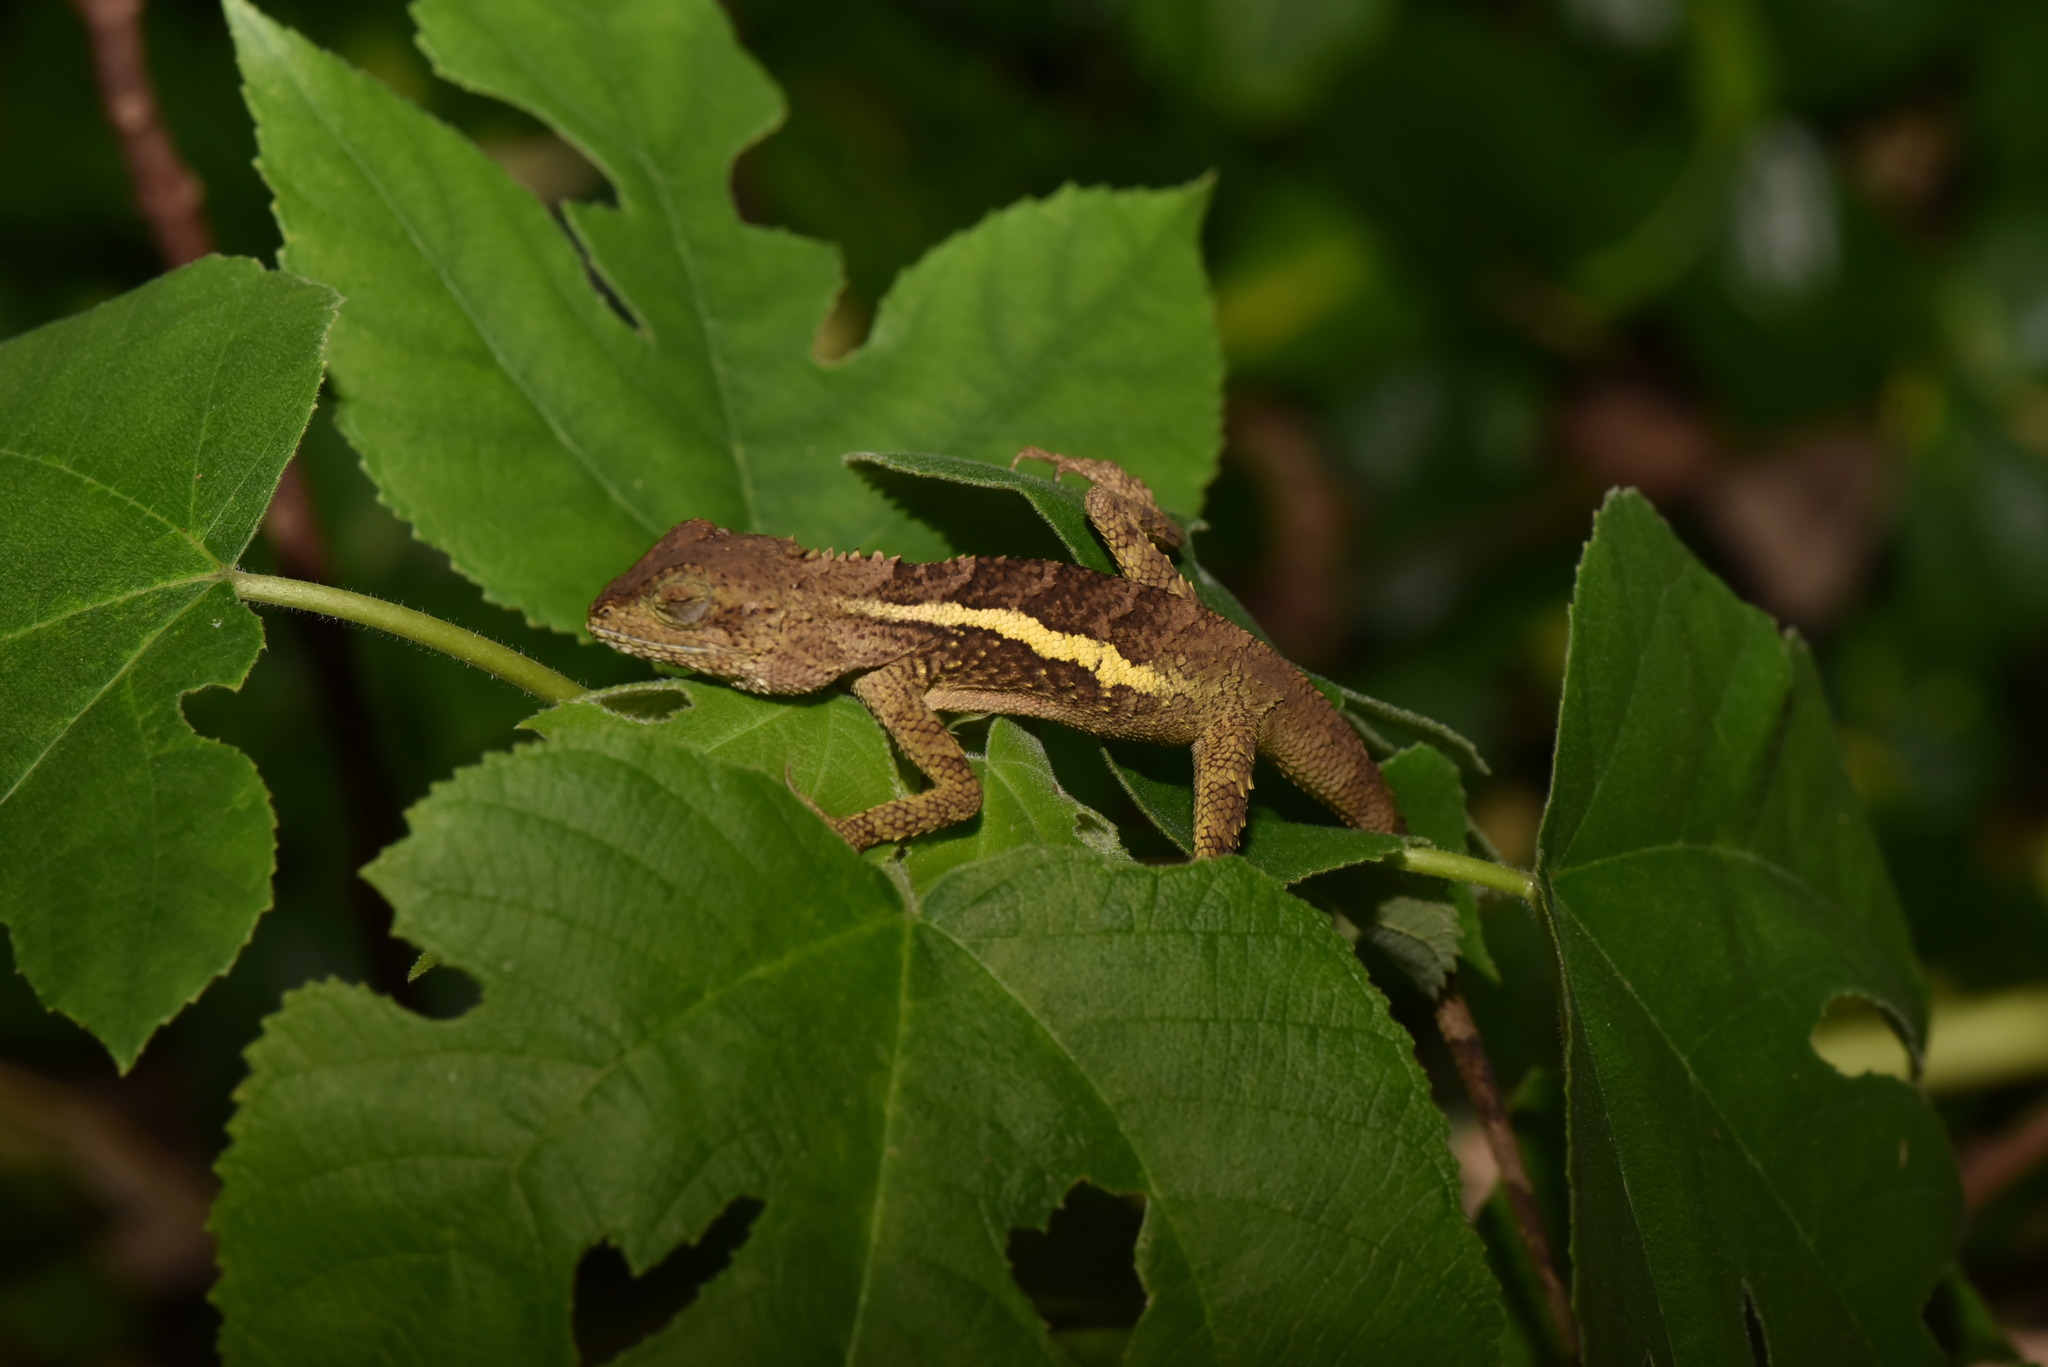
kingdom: Animalia
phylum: Chordata
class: Squamata
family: Agamidae
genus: Diploderma
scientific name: Diploderma swinhonis
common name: Taiwan japalure
